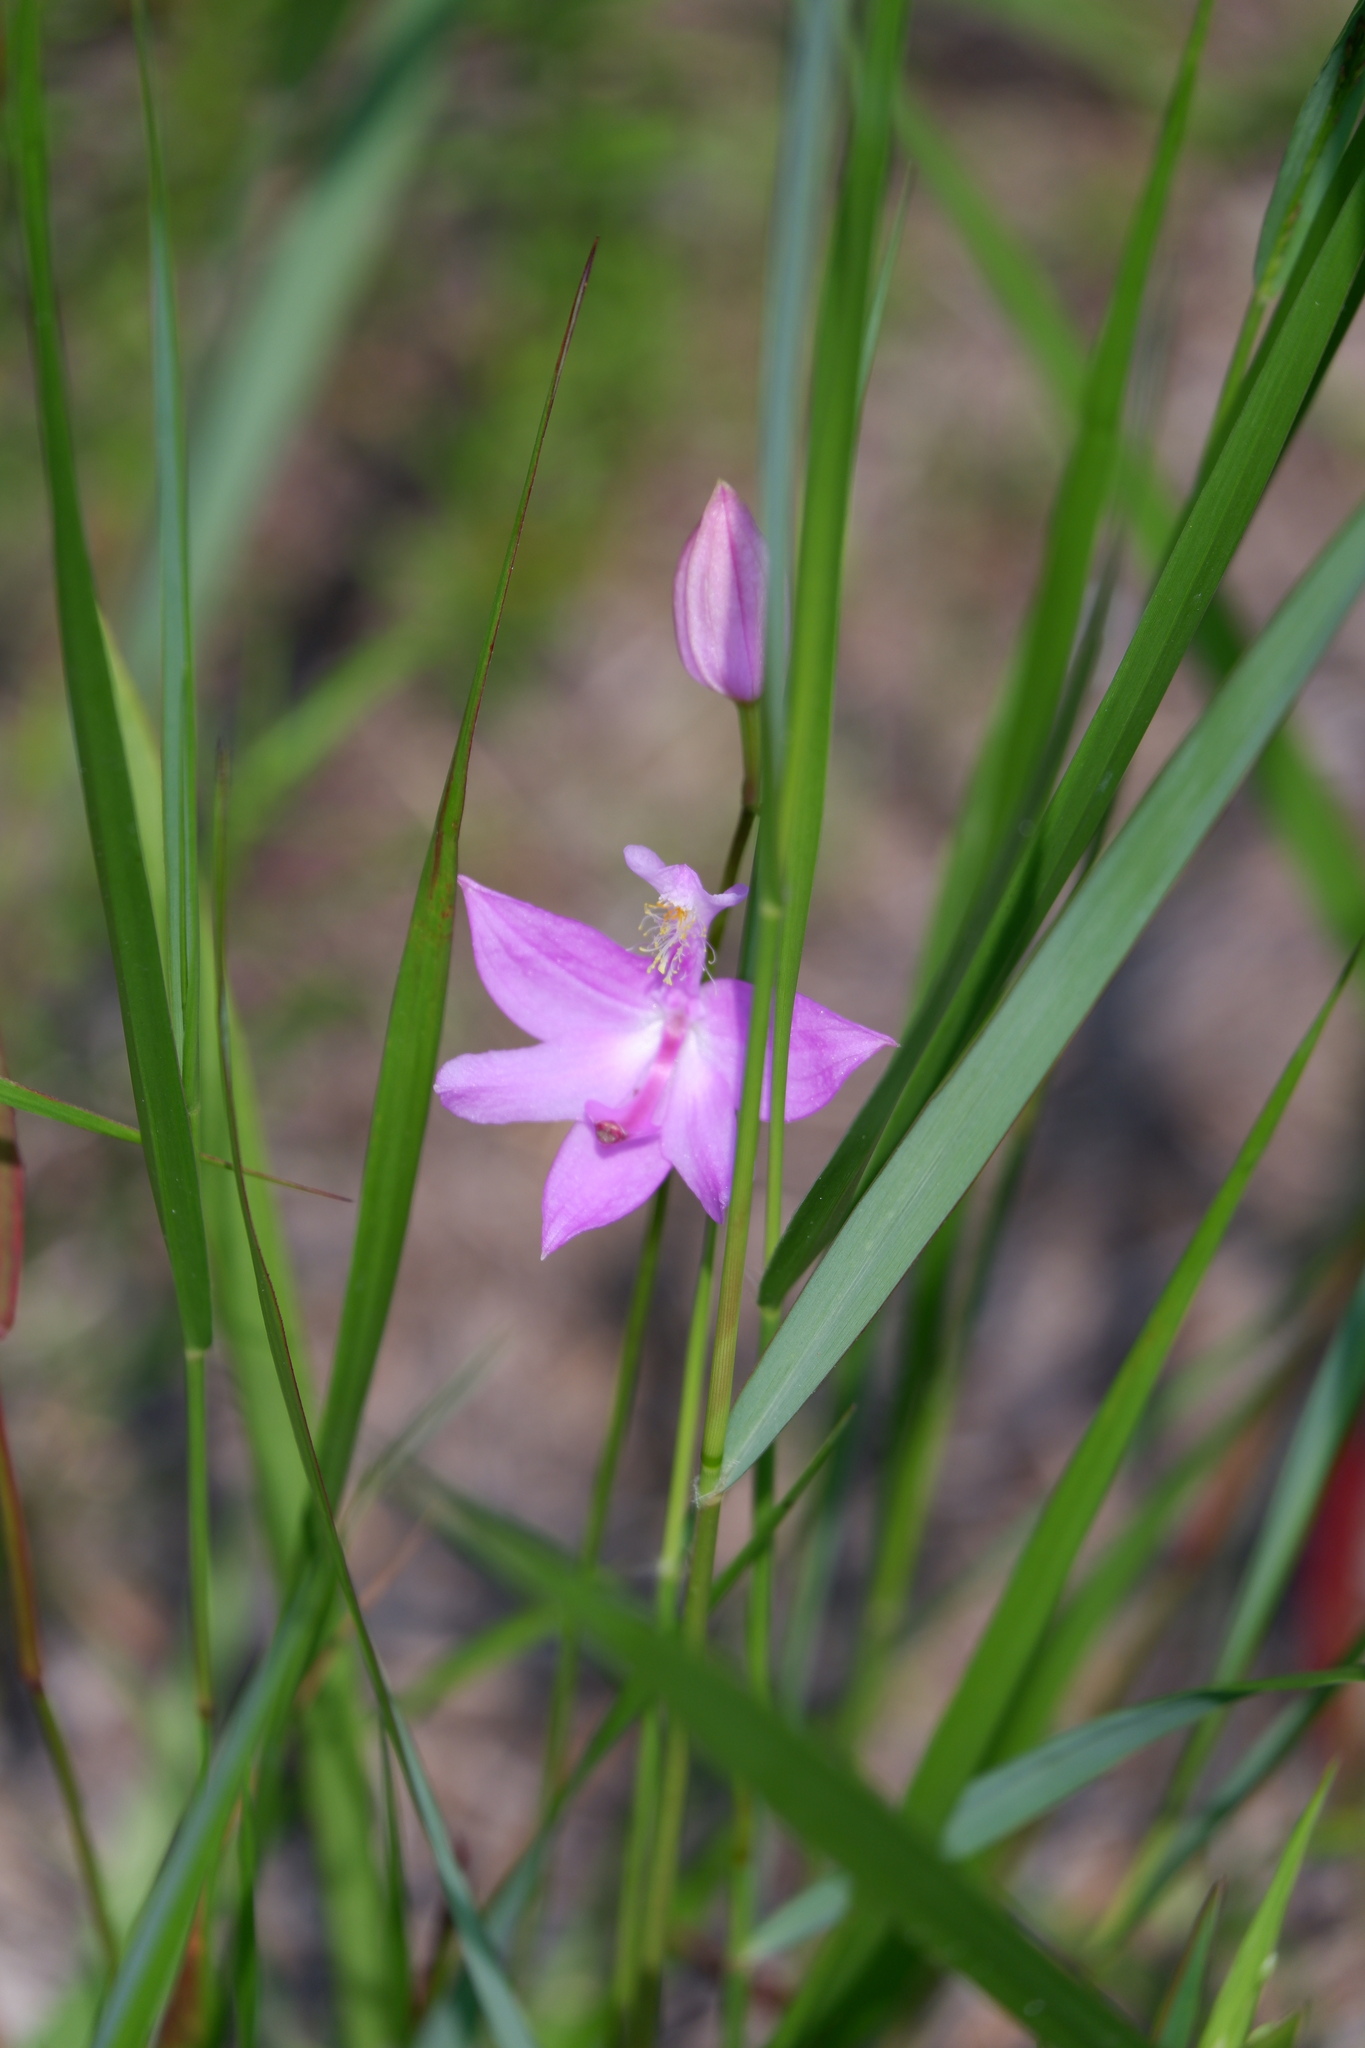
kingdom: Plantae
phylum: Tracheophyta
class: Liliopsida
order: Asparagales
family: Orchidaceae
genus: Calopogon
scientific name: Calopogon tuberosus
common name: Grass-pink
